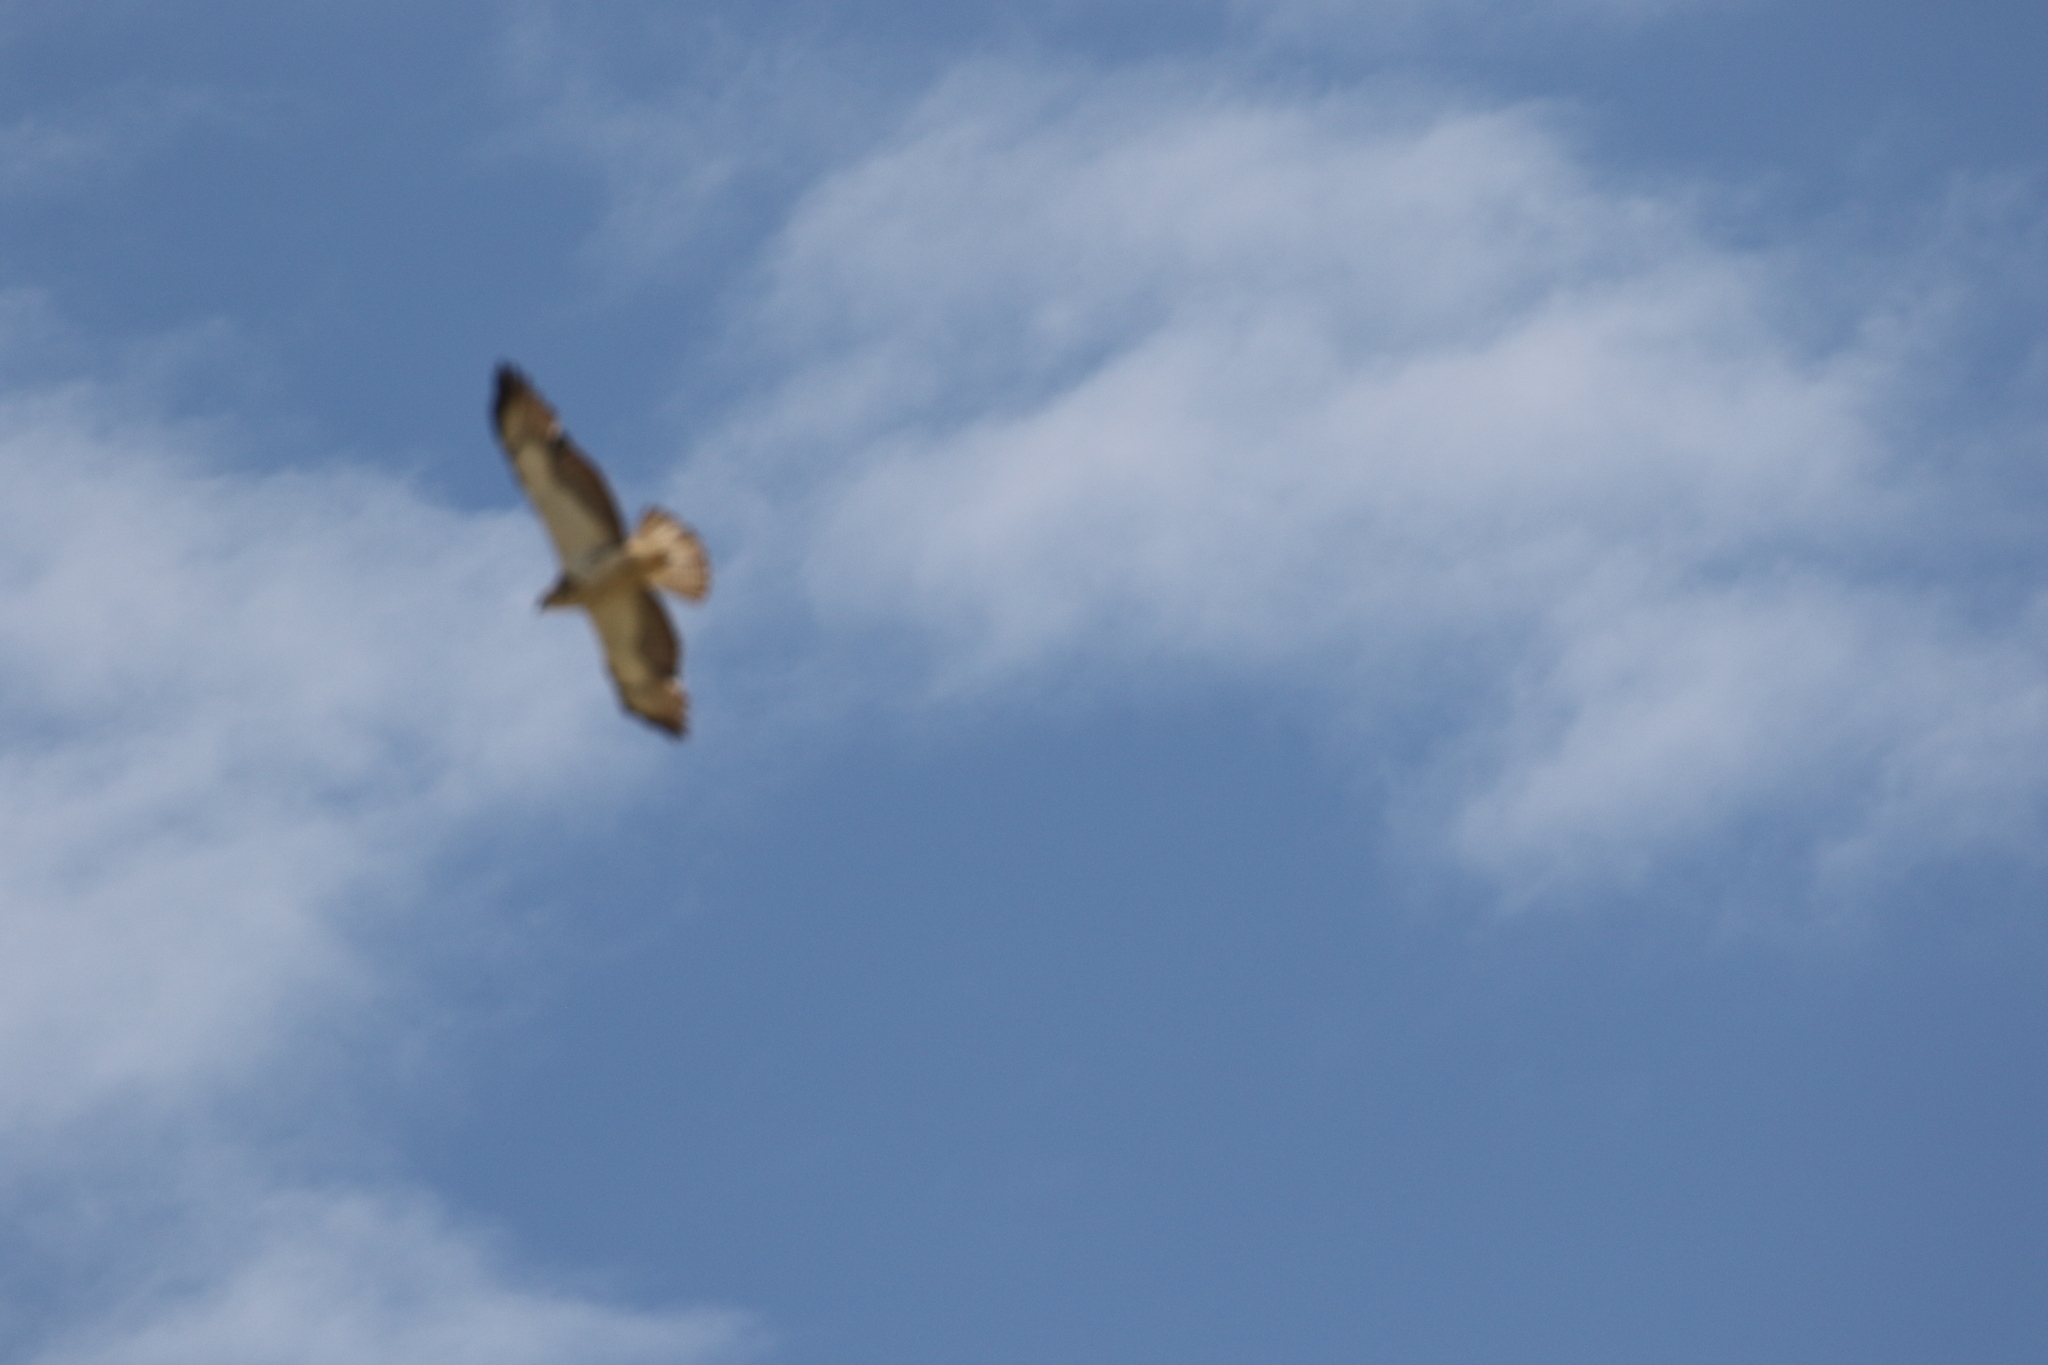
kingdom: Animalia
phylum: Chordata
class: Aves
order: Accipitriformes
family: Accipitridae
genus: Buteo
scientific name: Buteo swainsoni
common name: Swainson's hawk
